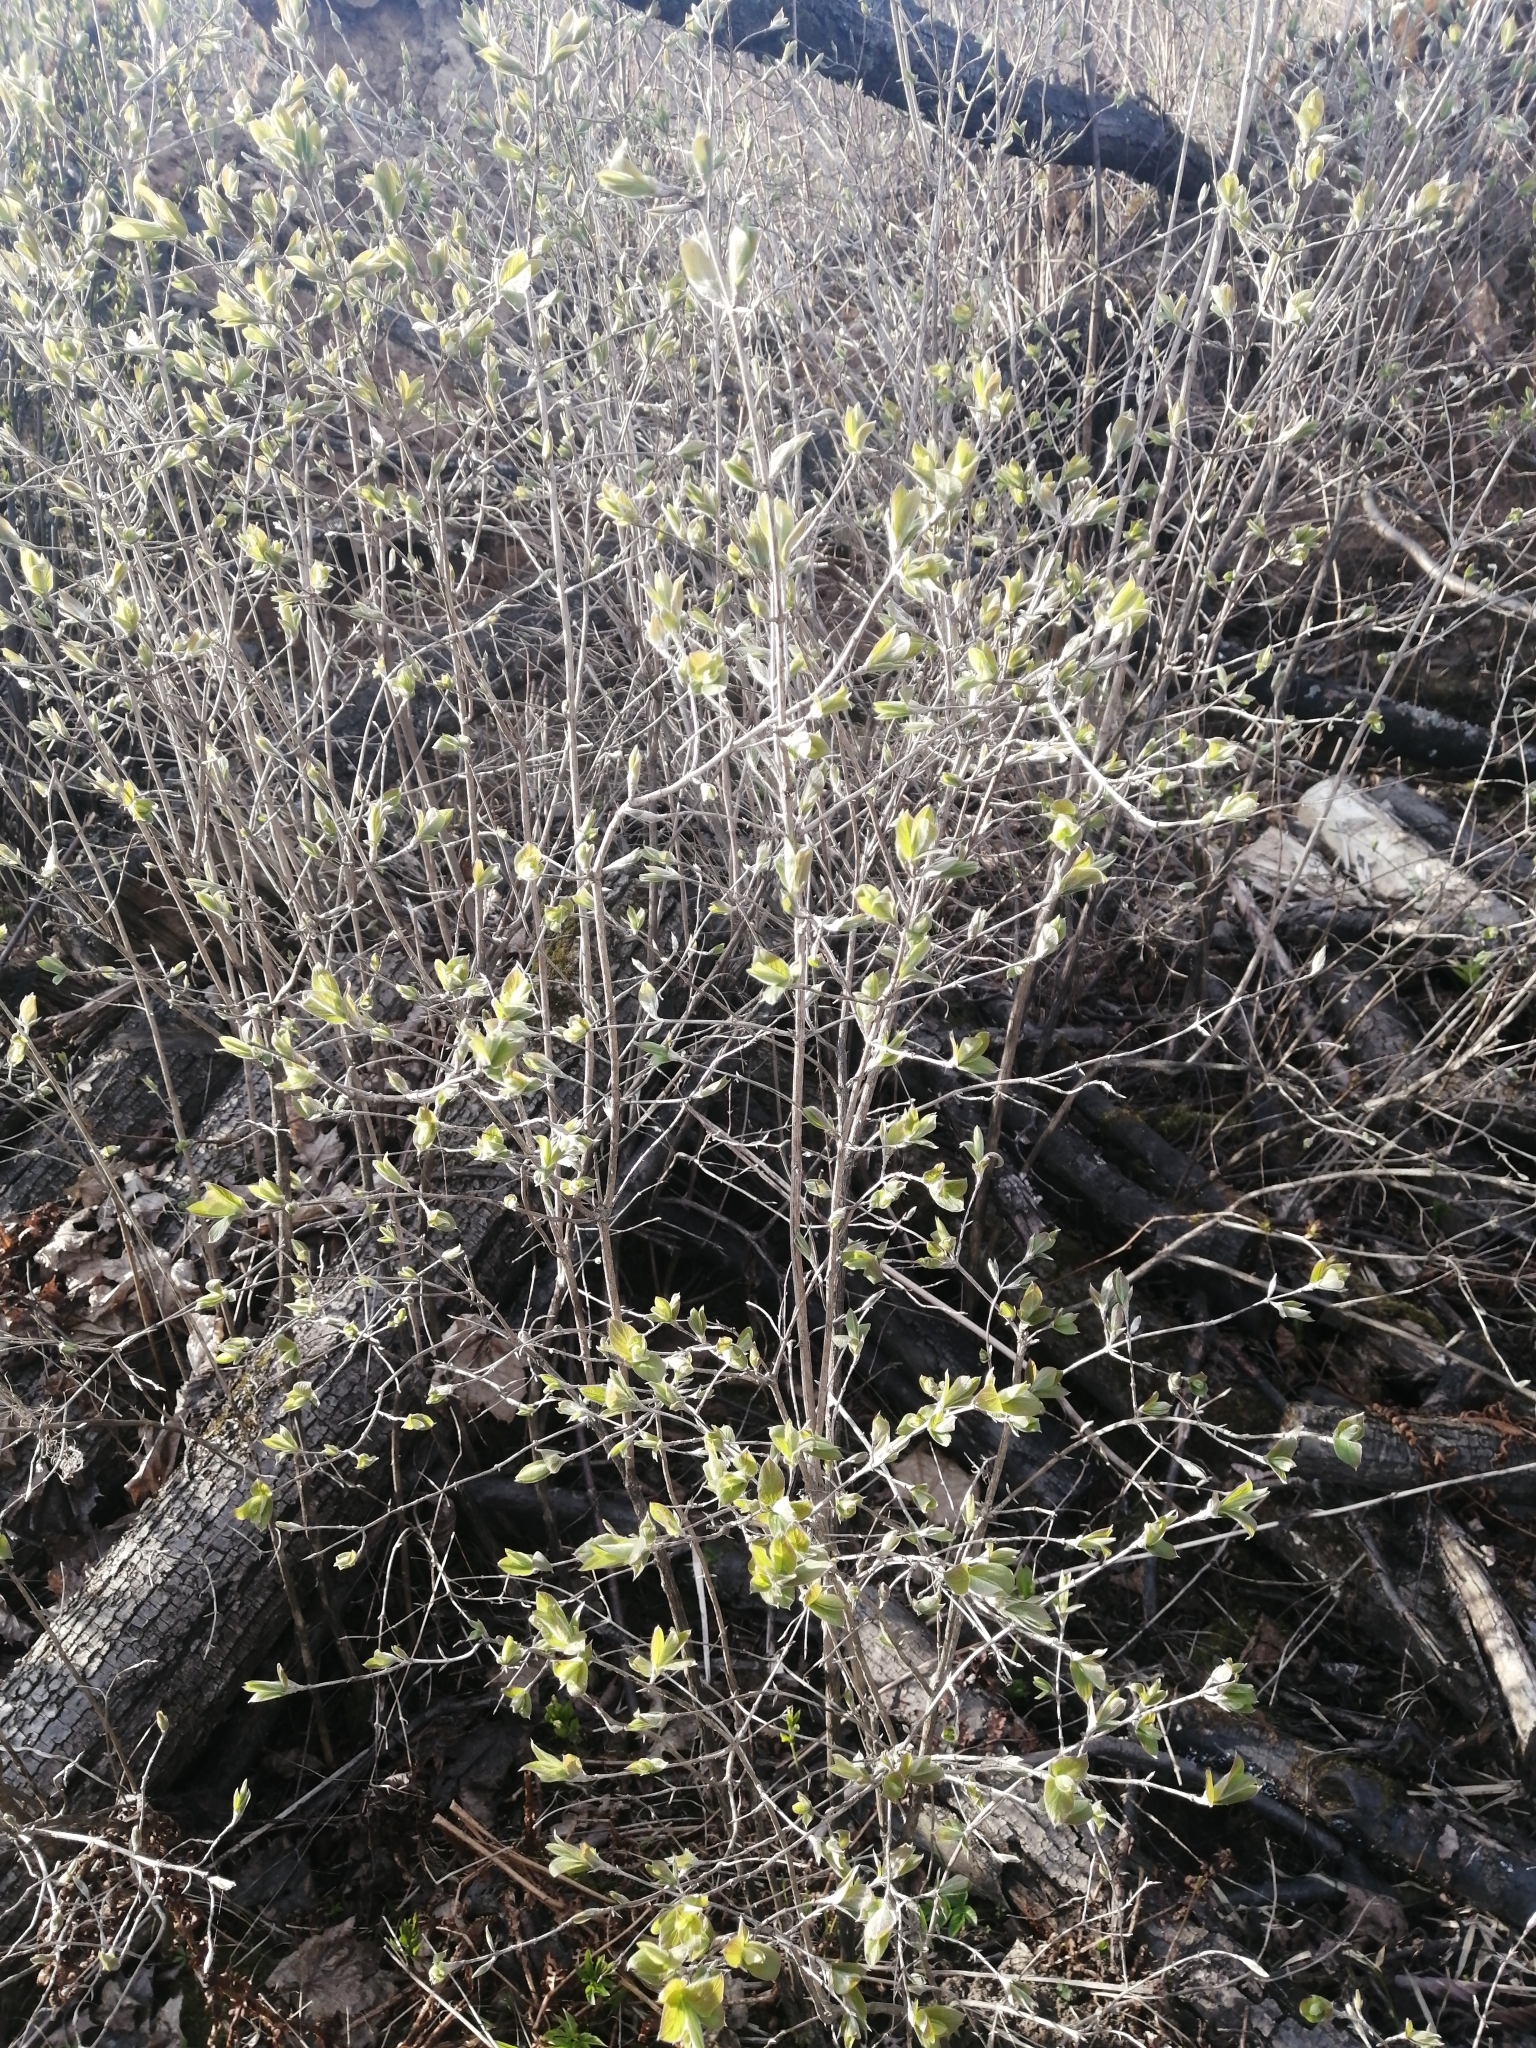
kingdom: Plantae
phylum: Tracheophyta
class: Magnoliopsida
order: Dipsacales
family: Caprifoliaceae
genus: Lonicera
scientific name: Lonicera xylosteum
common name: Fly honeysuckle
